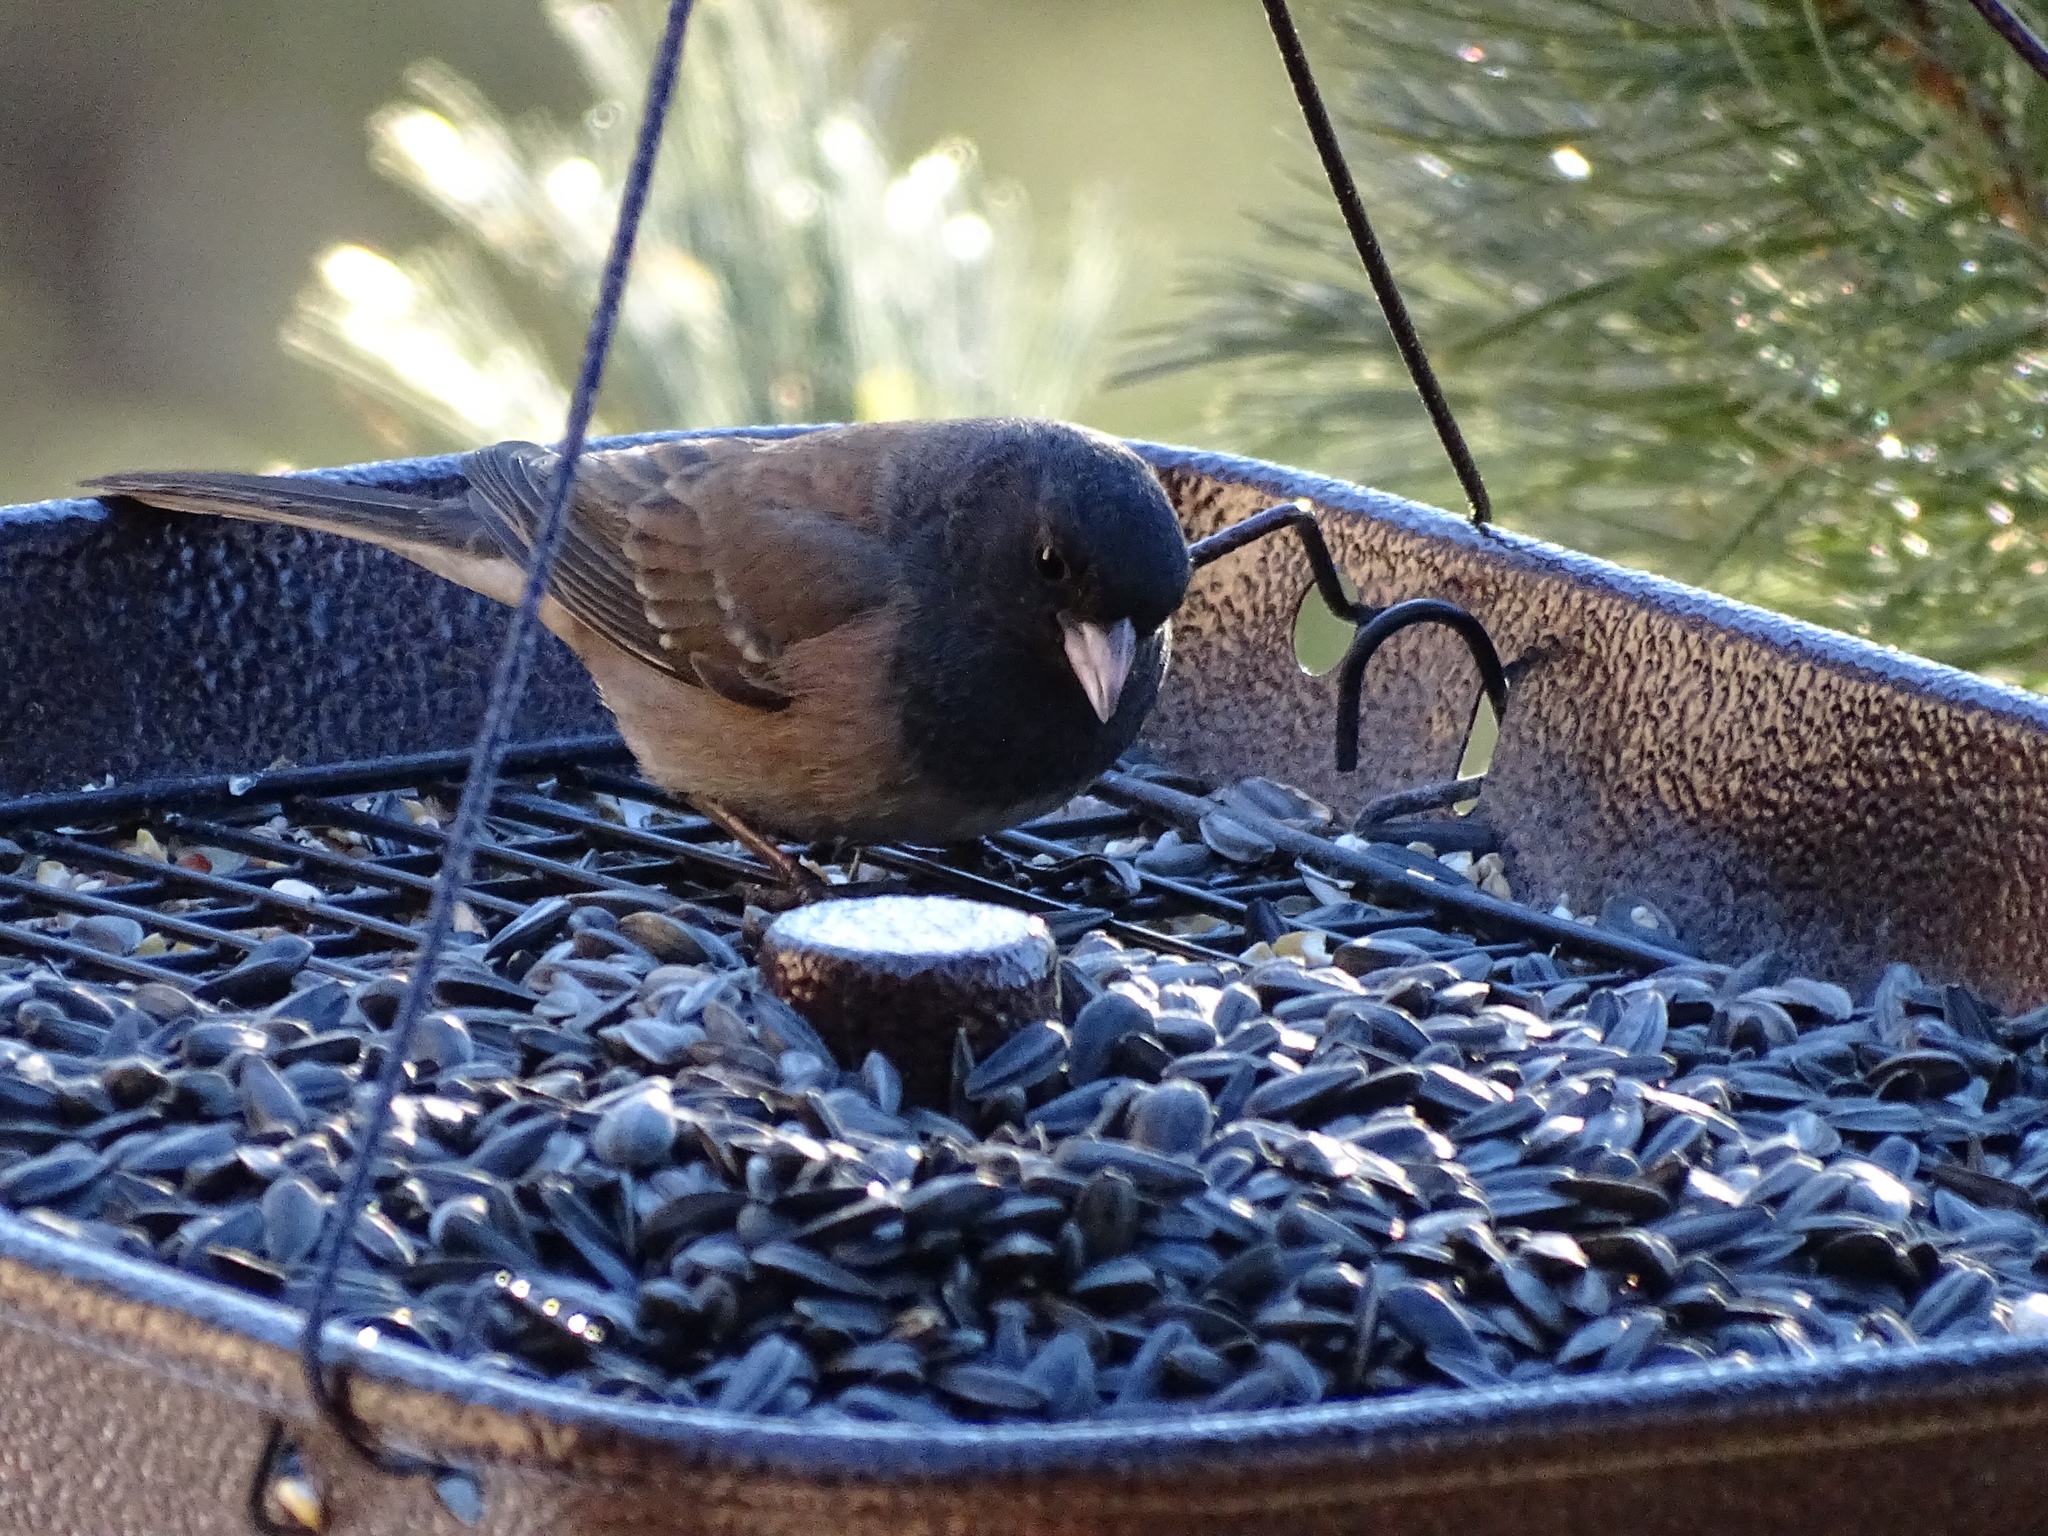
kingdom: Animalia
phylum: Chordata
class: Aves
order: Passeriformes
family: Passerellidae
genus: Junco
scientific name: Junco hyemalis
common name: Dark-eyed junco
